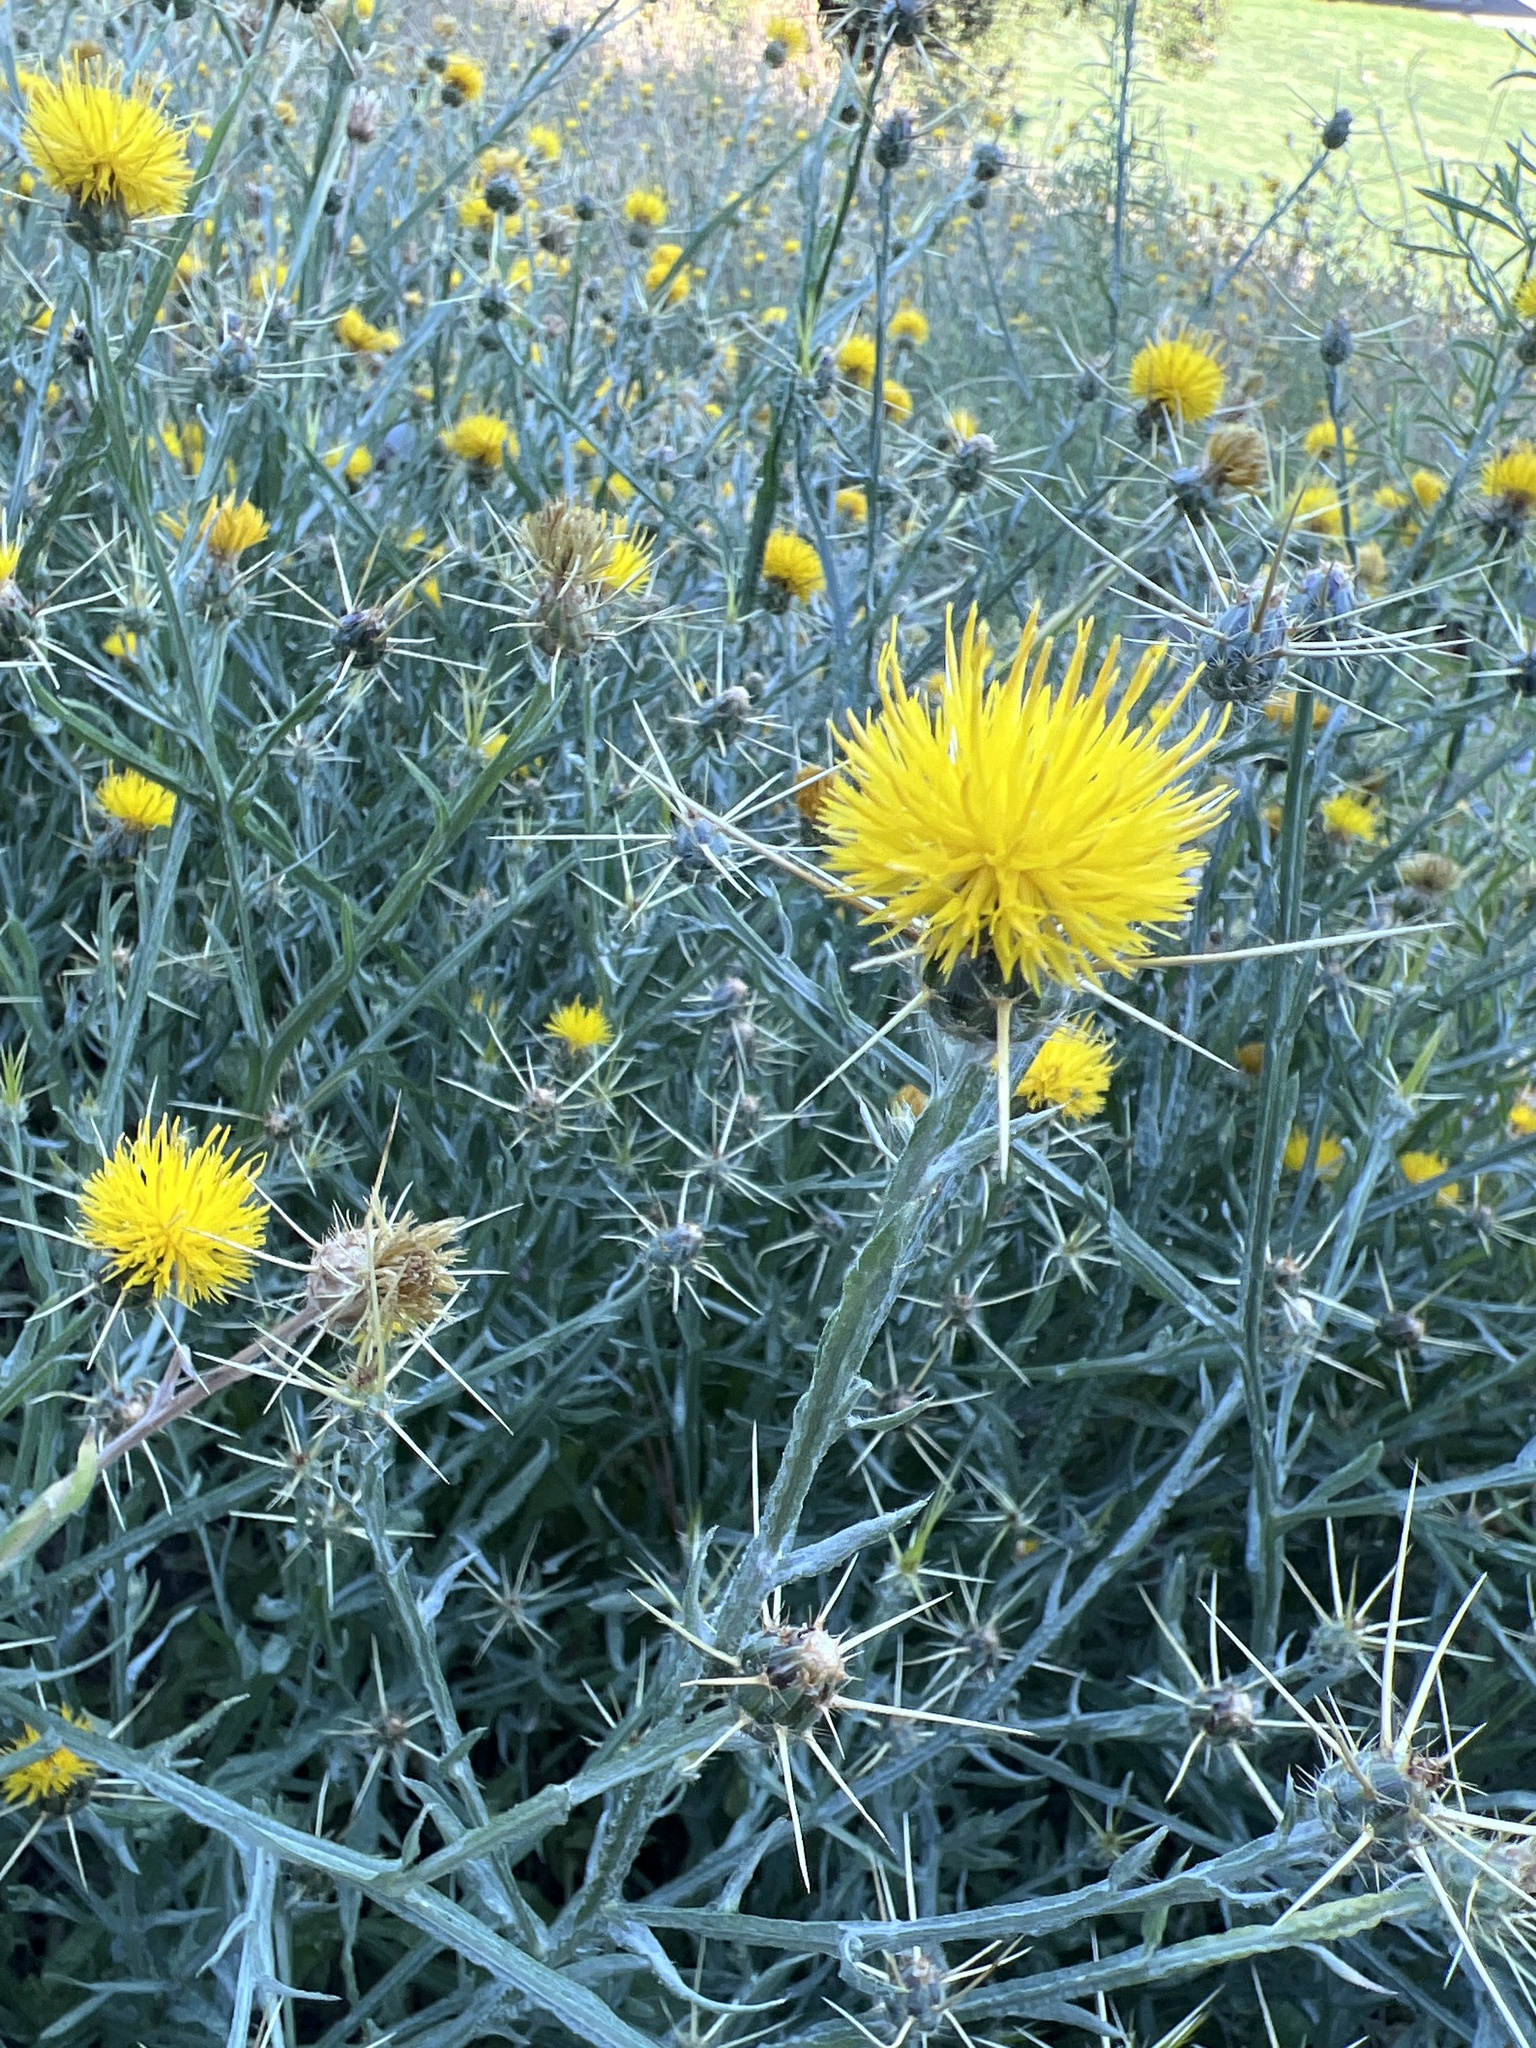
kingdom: Plantae
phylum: Tracheophyta
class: Magnoliopsida
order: Asterales
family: Asteraceae
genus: Centaurea
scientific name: Centaurea solstitialis
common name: Yellow star-thistle
